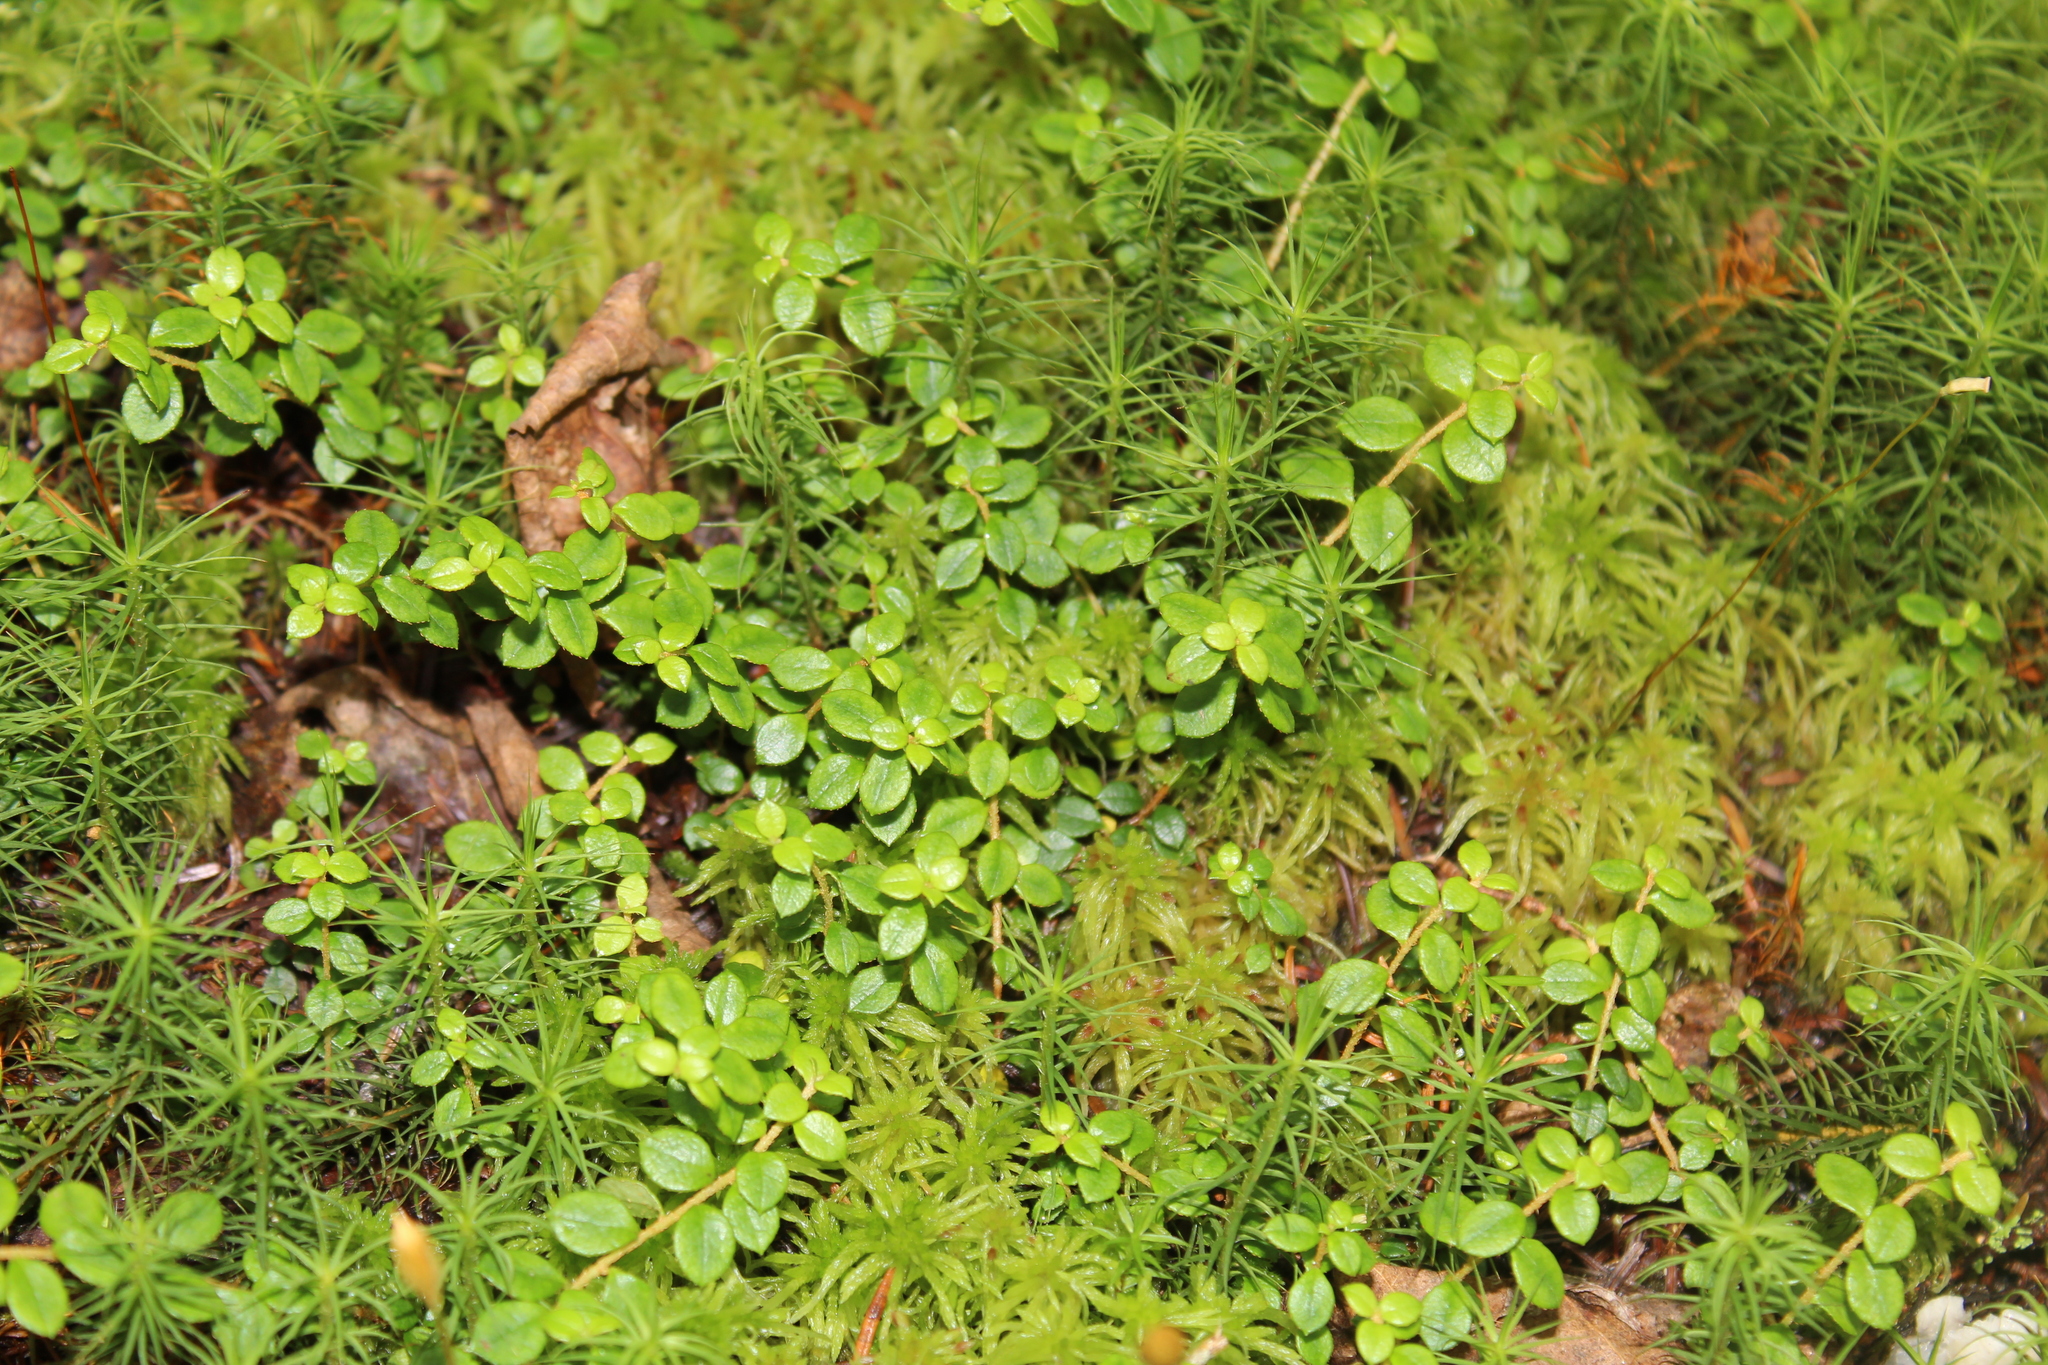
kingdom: Plantae
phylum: Tracheophyta
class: Magnoliopsida
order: Ericales
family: Ericaceae
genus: Gaultheria
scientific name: Gaultheria hispidula
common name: Cancer wintergreen
